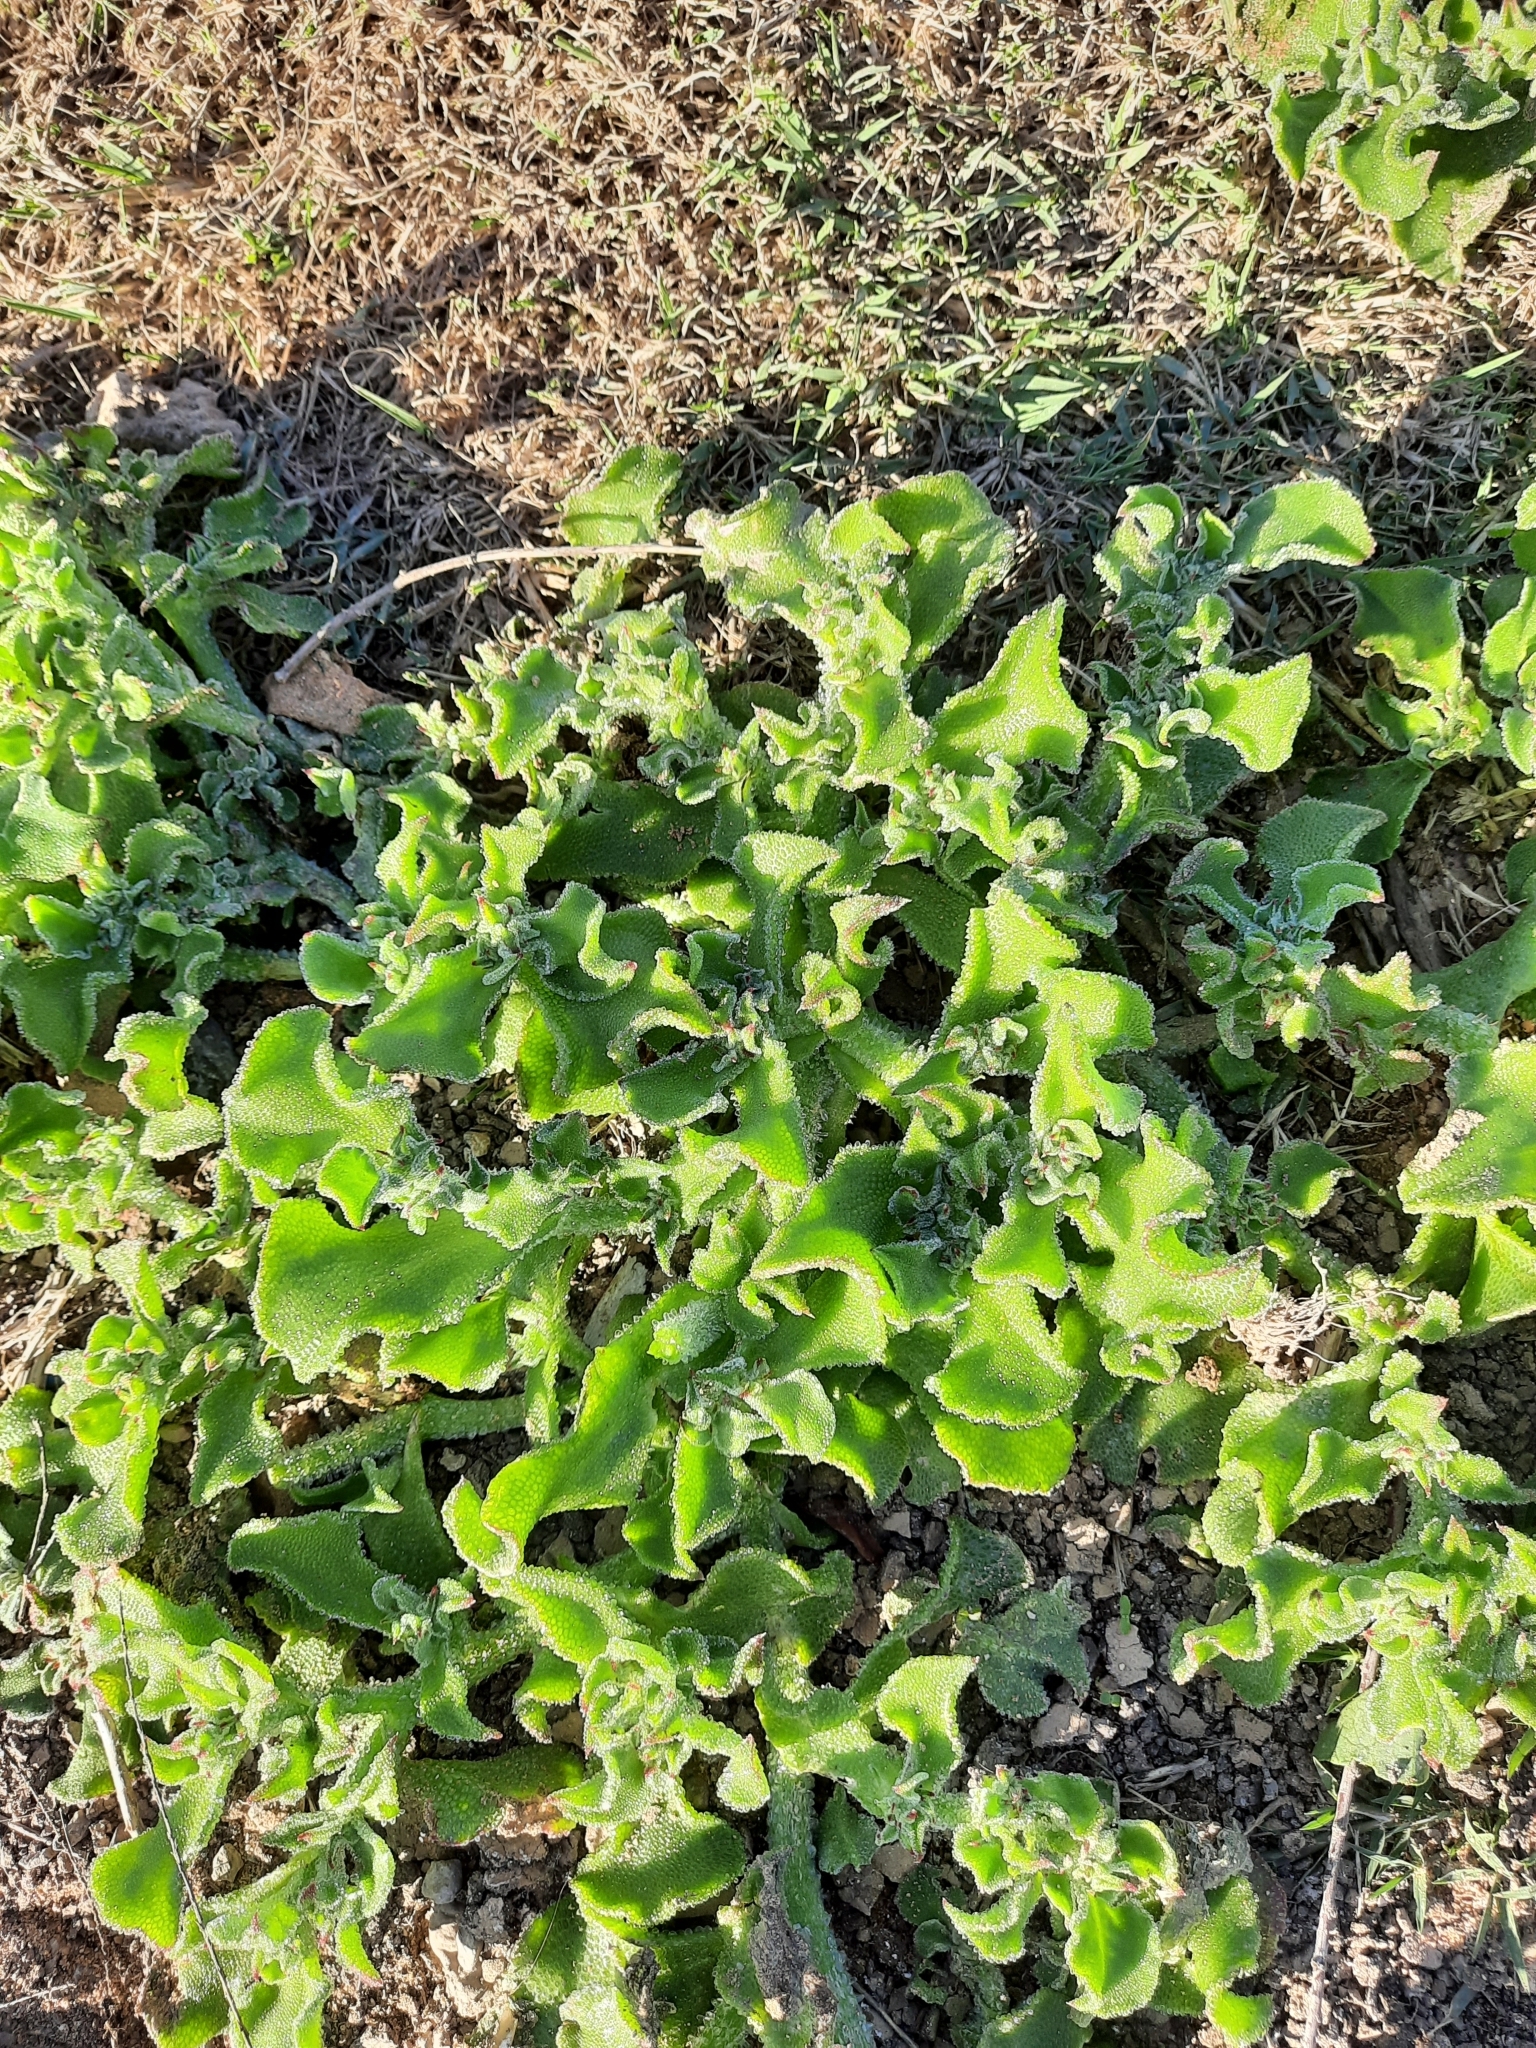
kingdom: Plantae
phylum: Tracheophyta
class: Magnoliopsida
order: Caryophyllales
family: Aizoaceae
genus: Mesembryanthemum
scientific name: Mesembryanthemum crystallinum
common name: Common iceplant
